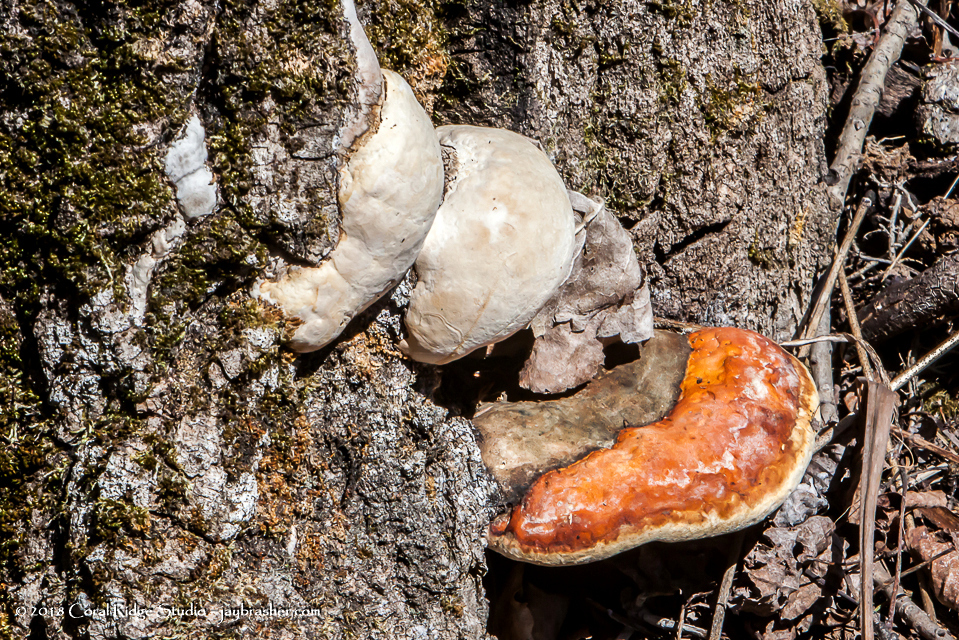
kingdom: Fungi
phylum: Basidiomycota
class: Agaricomycetes
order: Polyporales
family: Fomitopsidaceae
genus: Fomitopsis
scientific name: Fomitopsis mounceae
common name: Northern red belt
